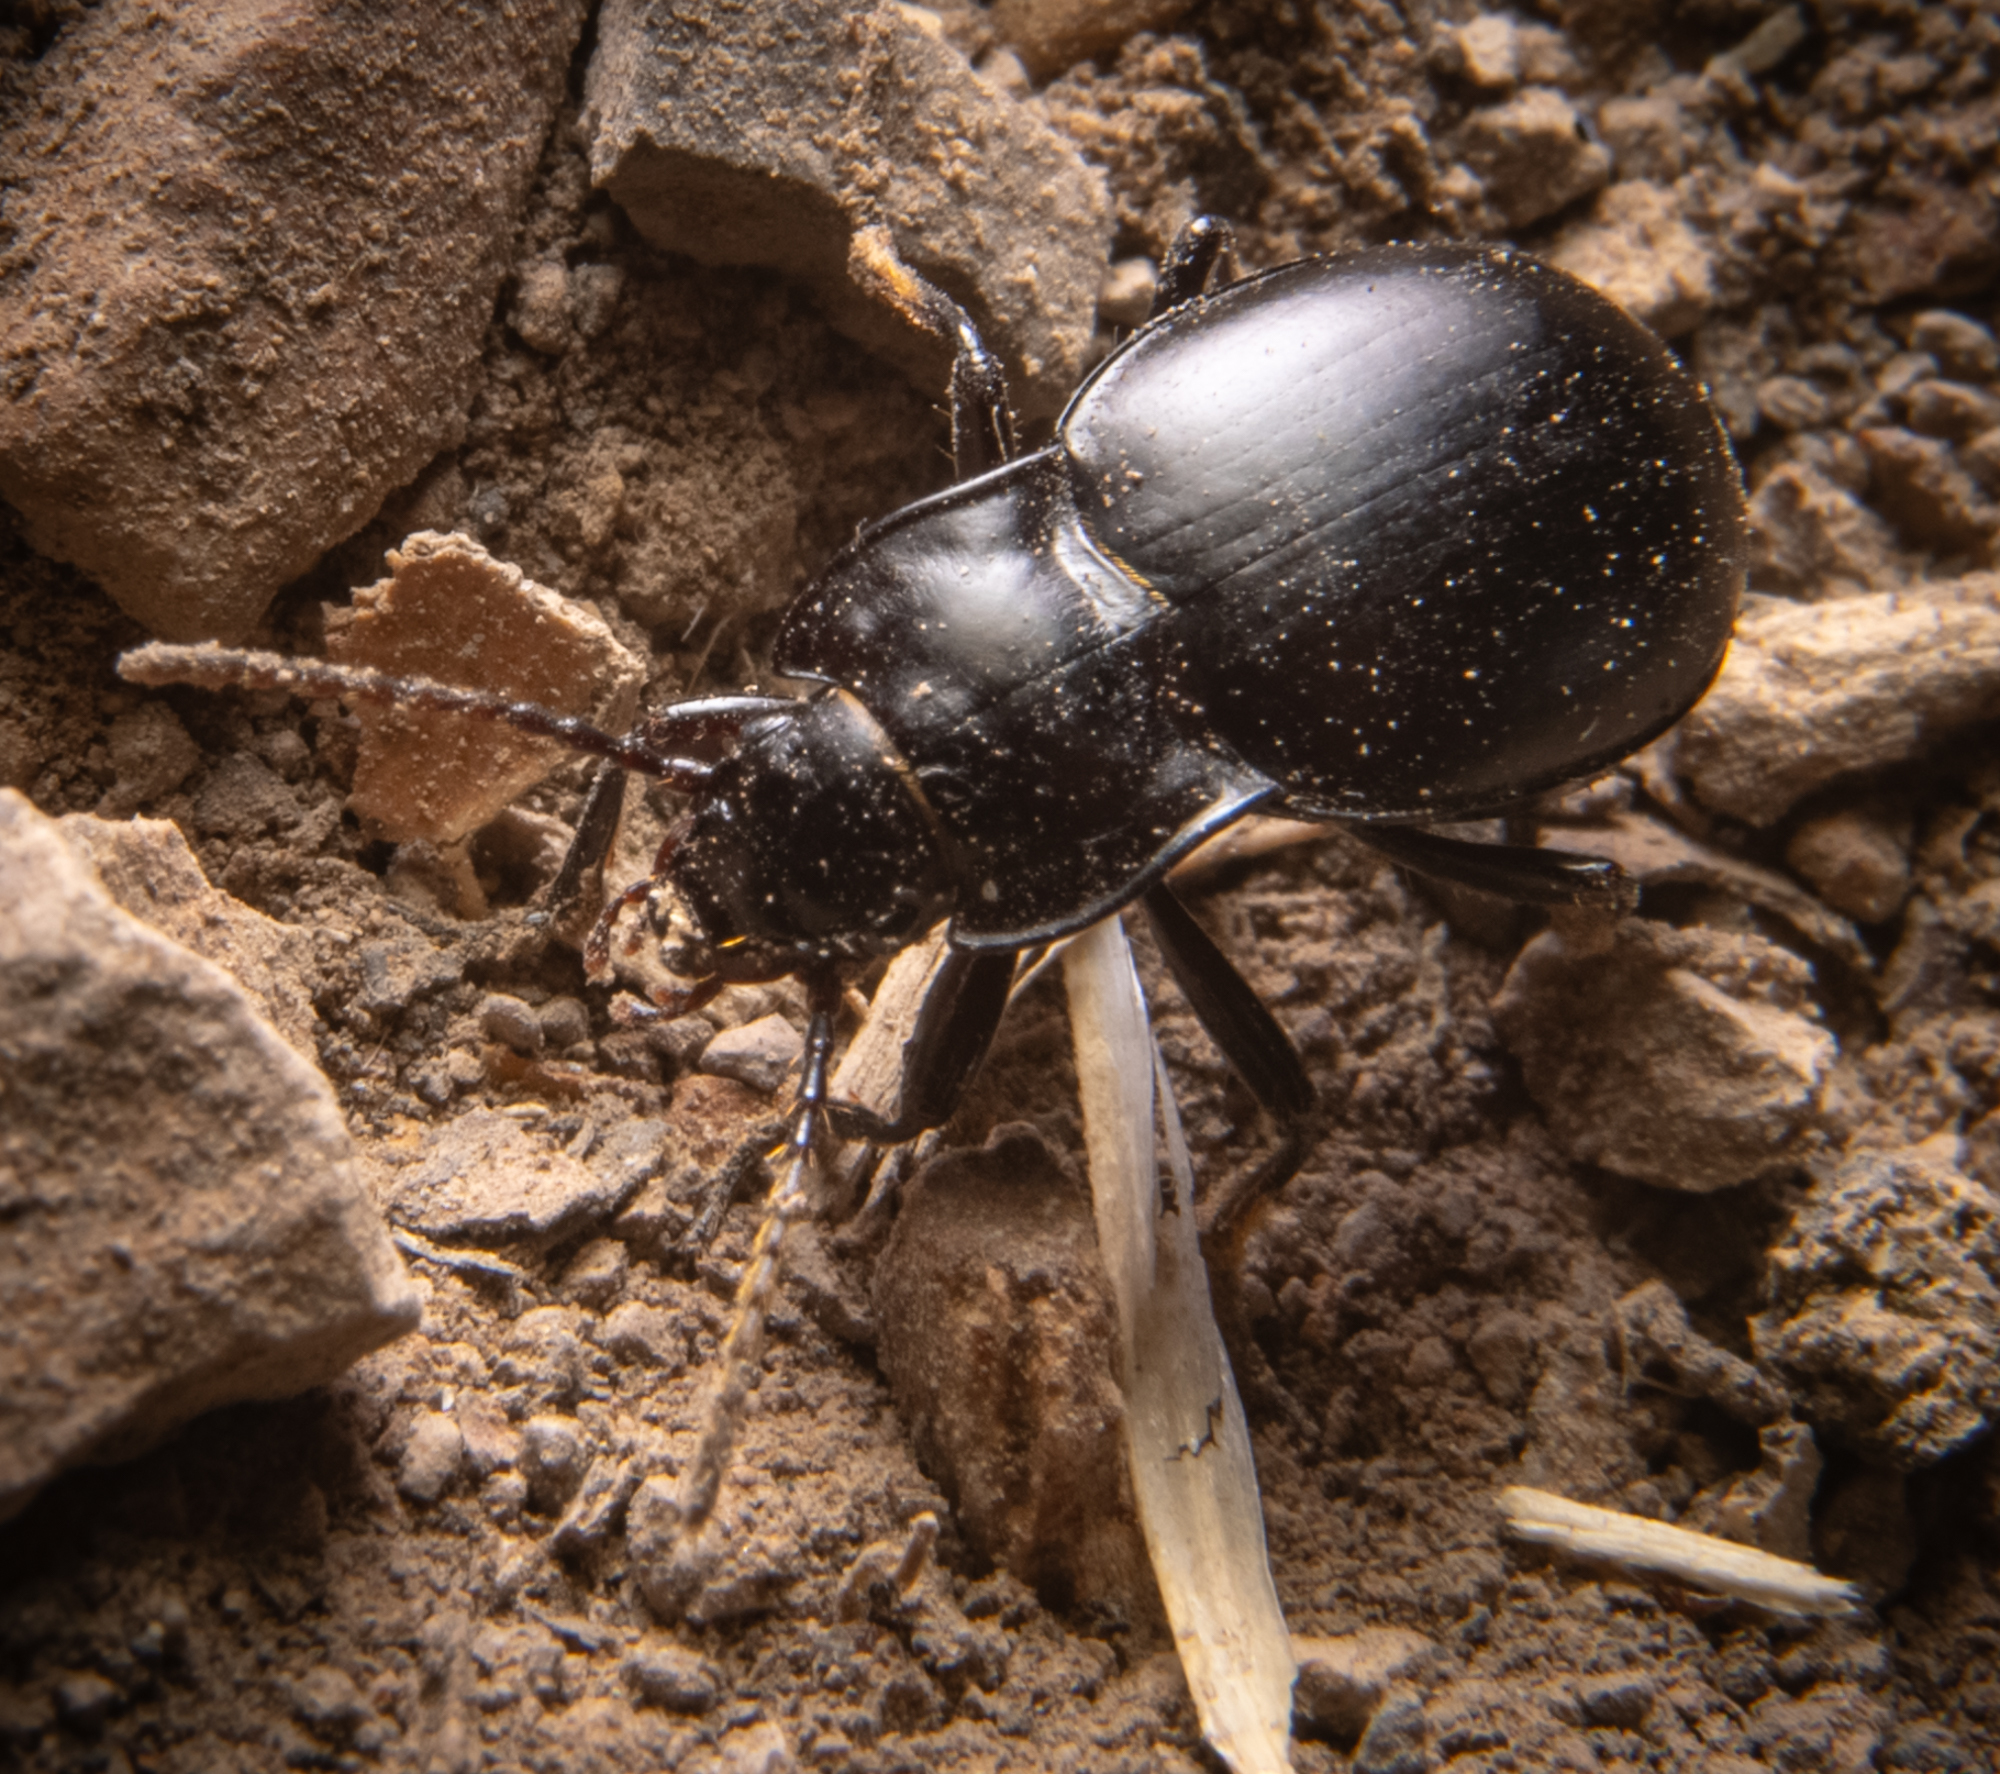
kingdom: Animalia
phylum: Arthropoda
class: Insecta
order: Coleoptera
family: Carabidae
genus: Metrius
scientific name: Metrius contractus
